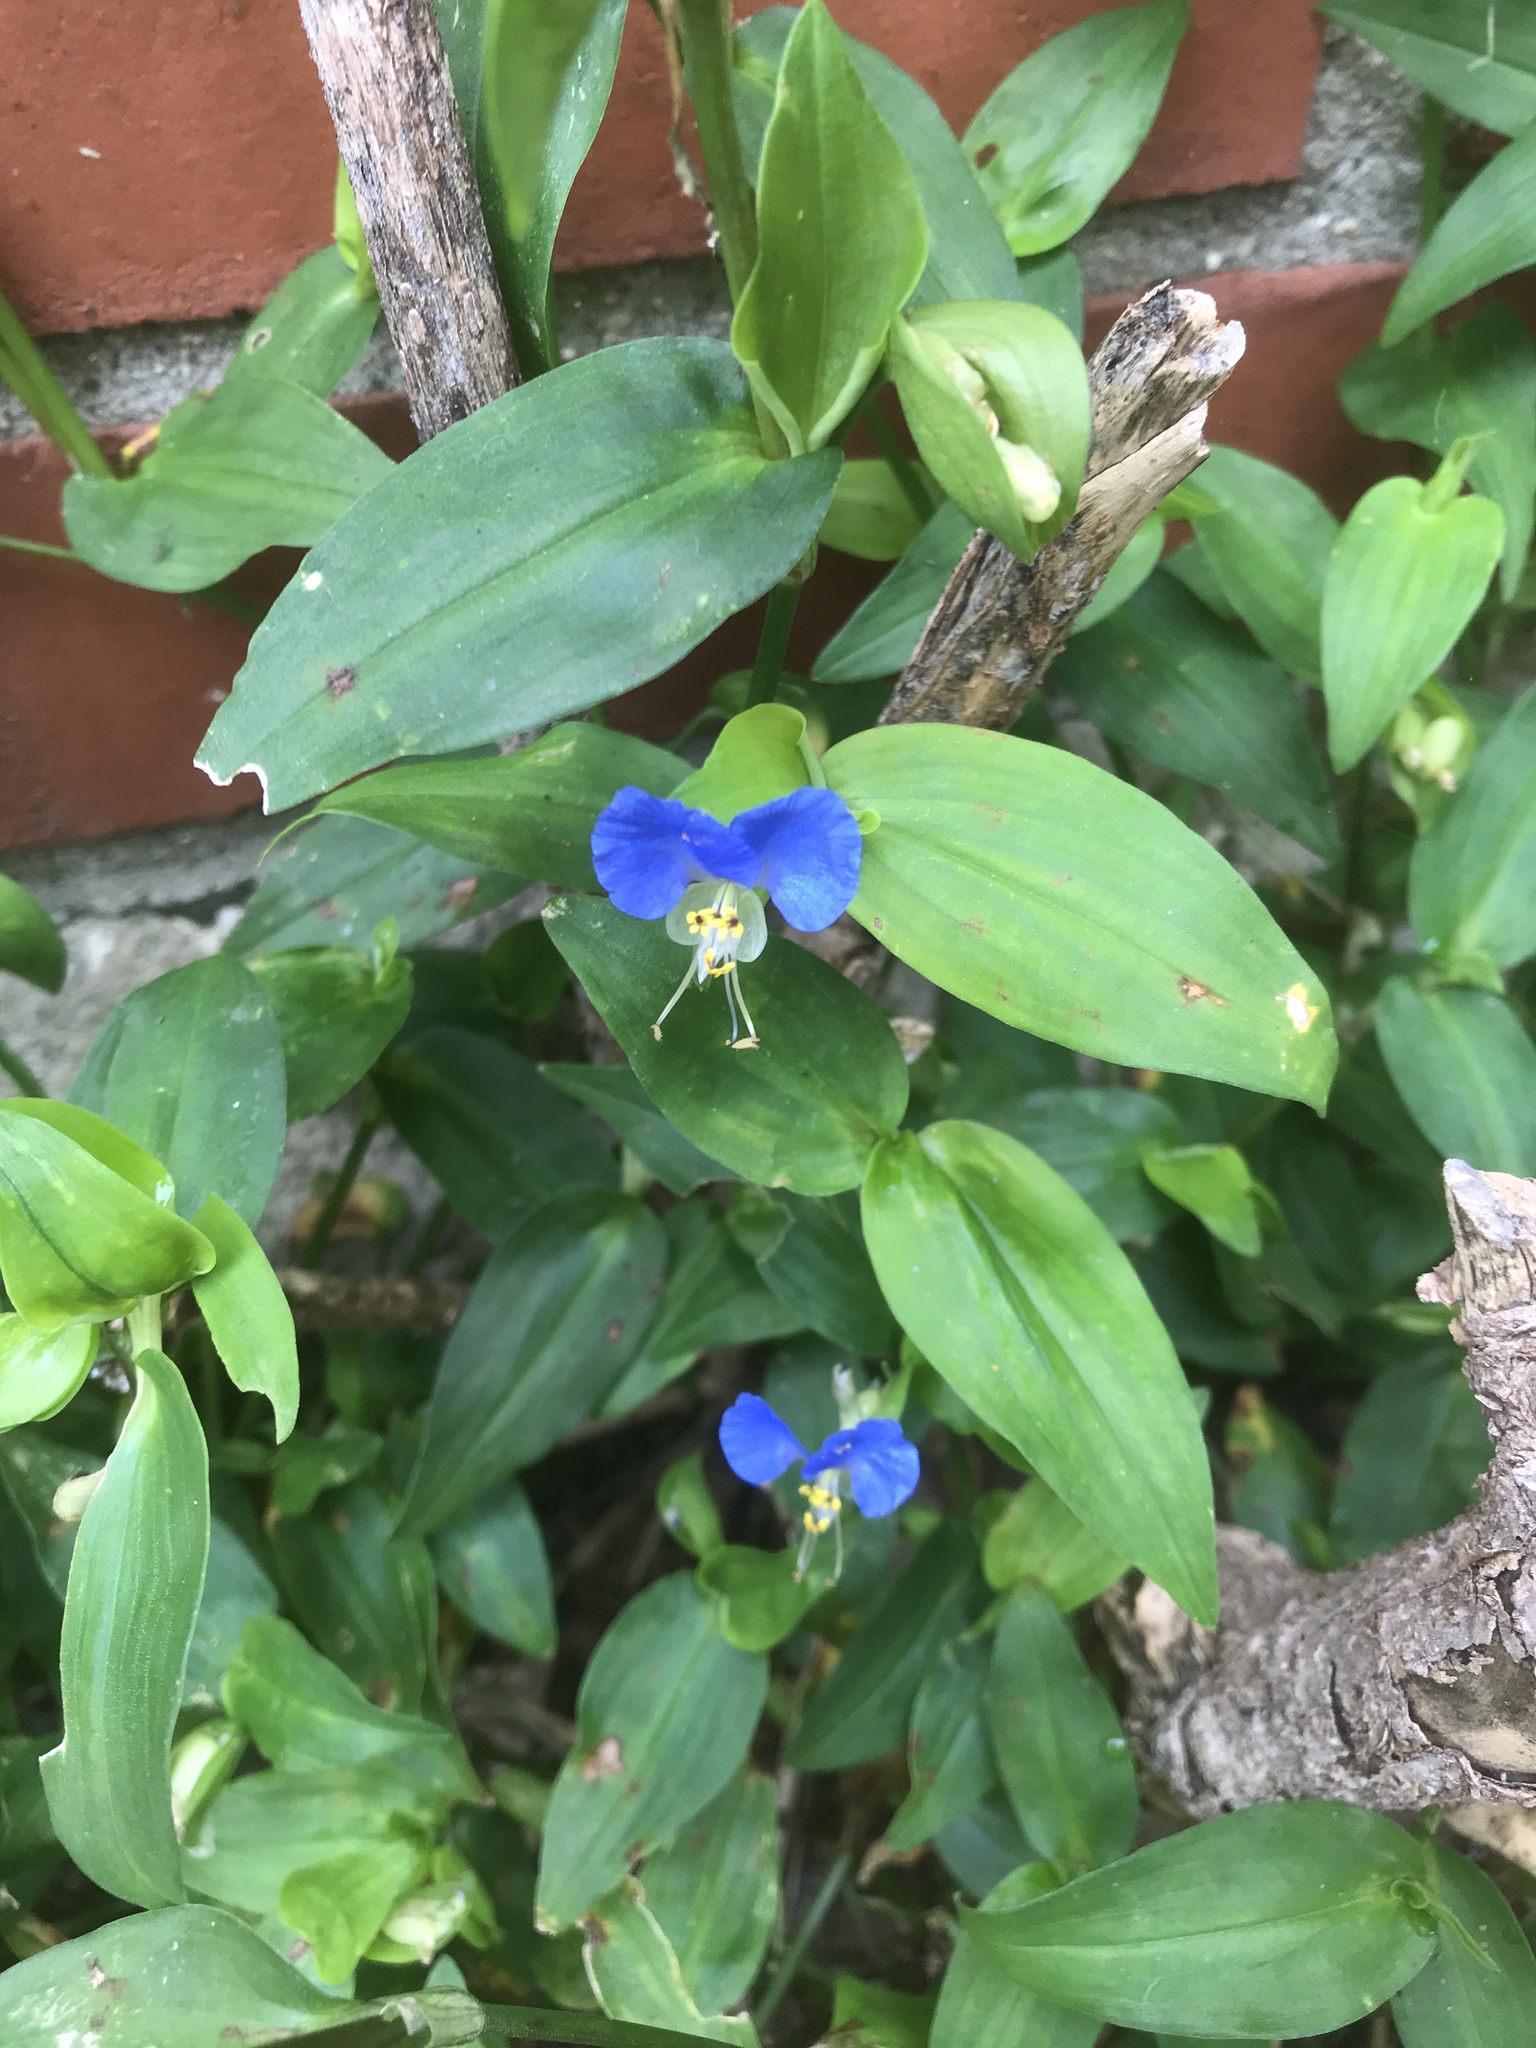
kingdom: Plantae
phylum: Tracheophyta
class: Liliopsida
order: Commelinales
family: Commelinaceae
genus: Commelina
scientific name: Commelina communis
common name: Asiatic dayflower
